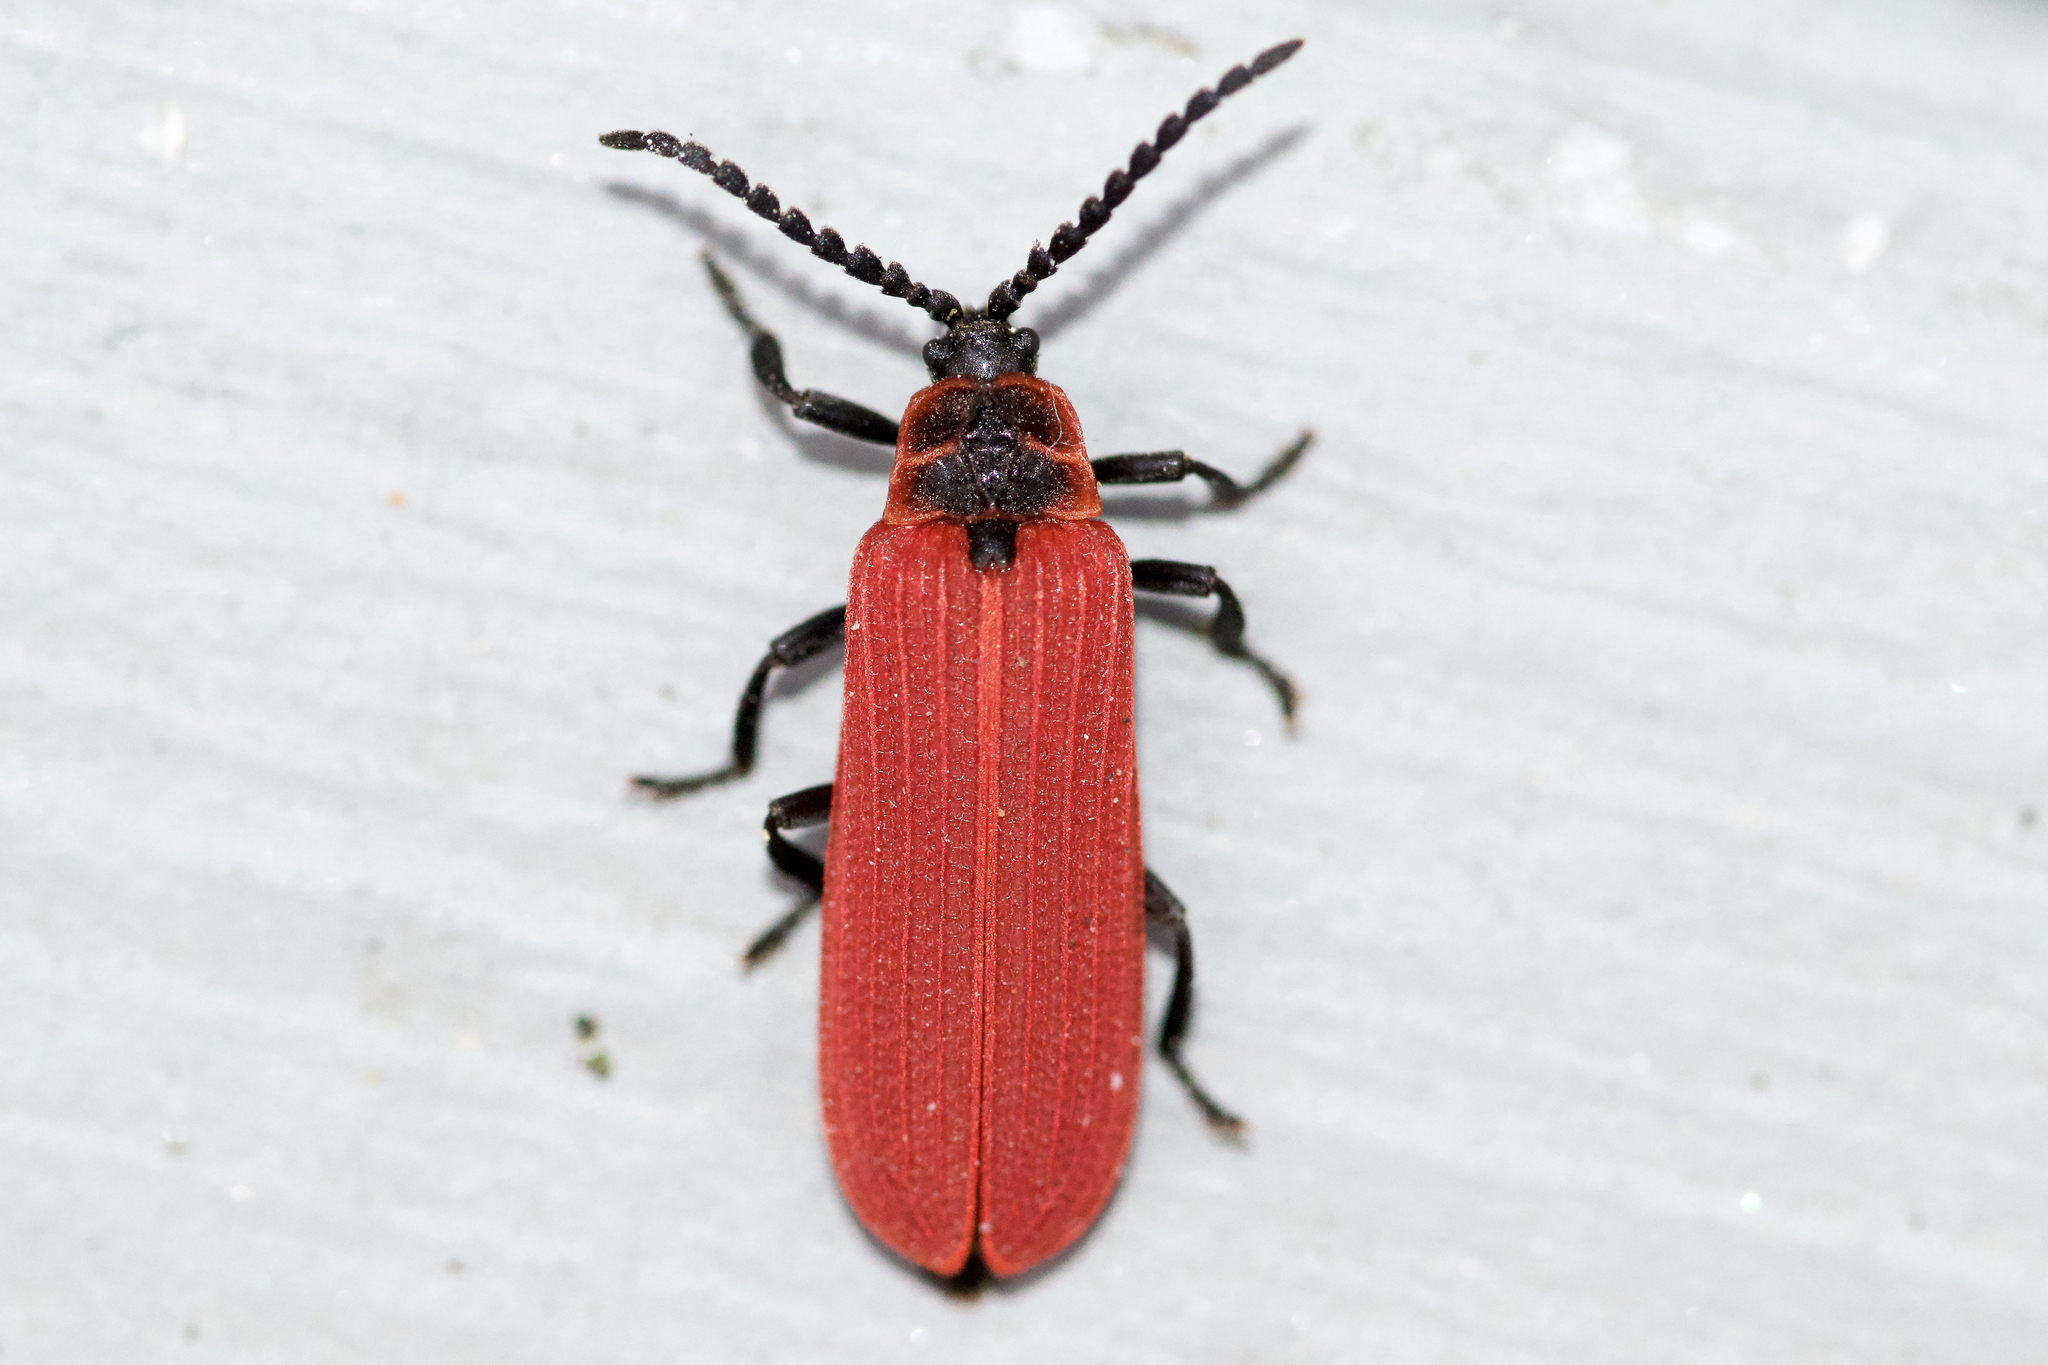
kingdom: Animalia
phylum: Arthropoda
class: Insecta
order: Coleoptera
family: Lycidae
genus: Dictyoptera
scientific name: Dictyoptera aurora
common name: Golden net-winged beetle
